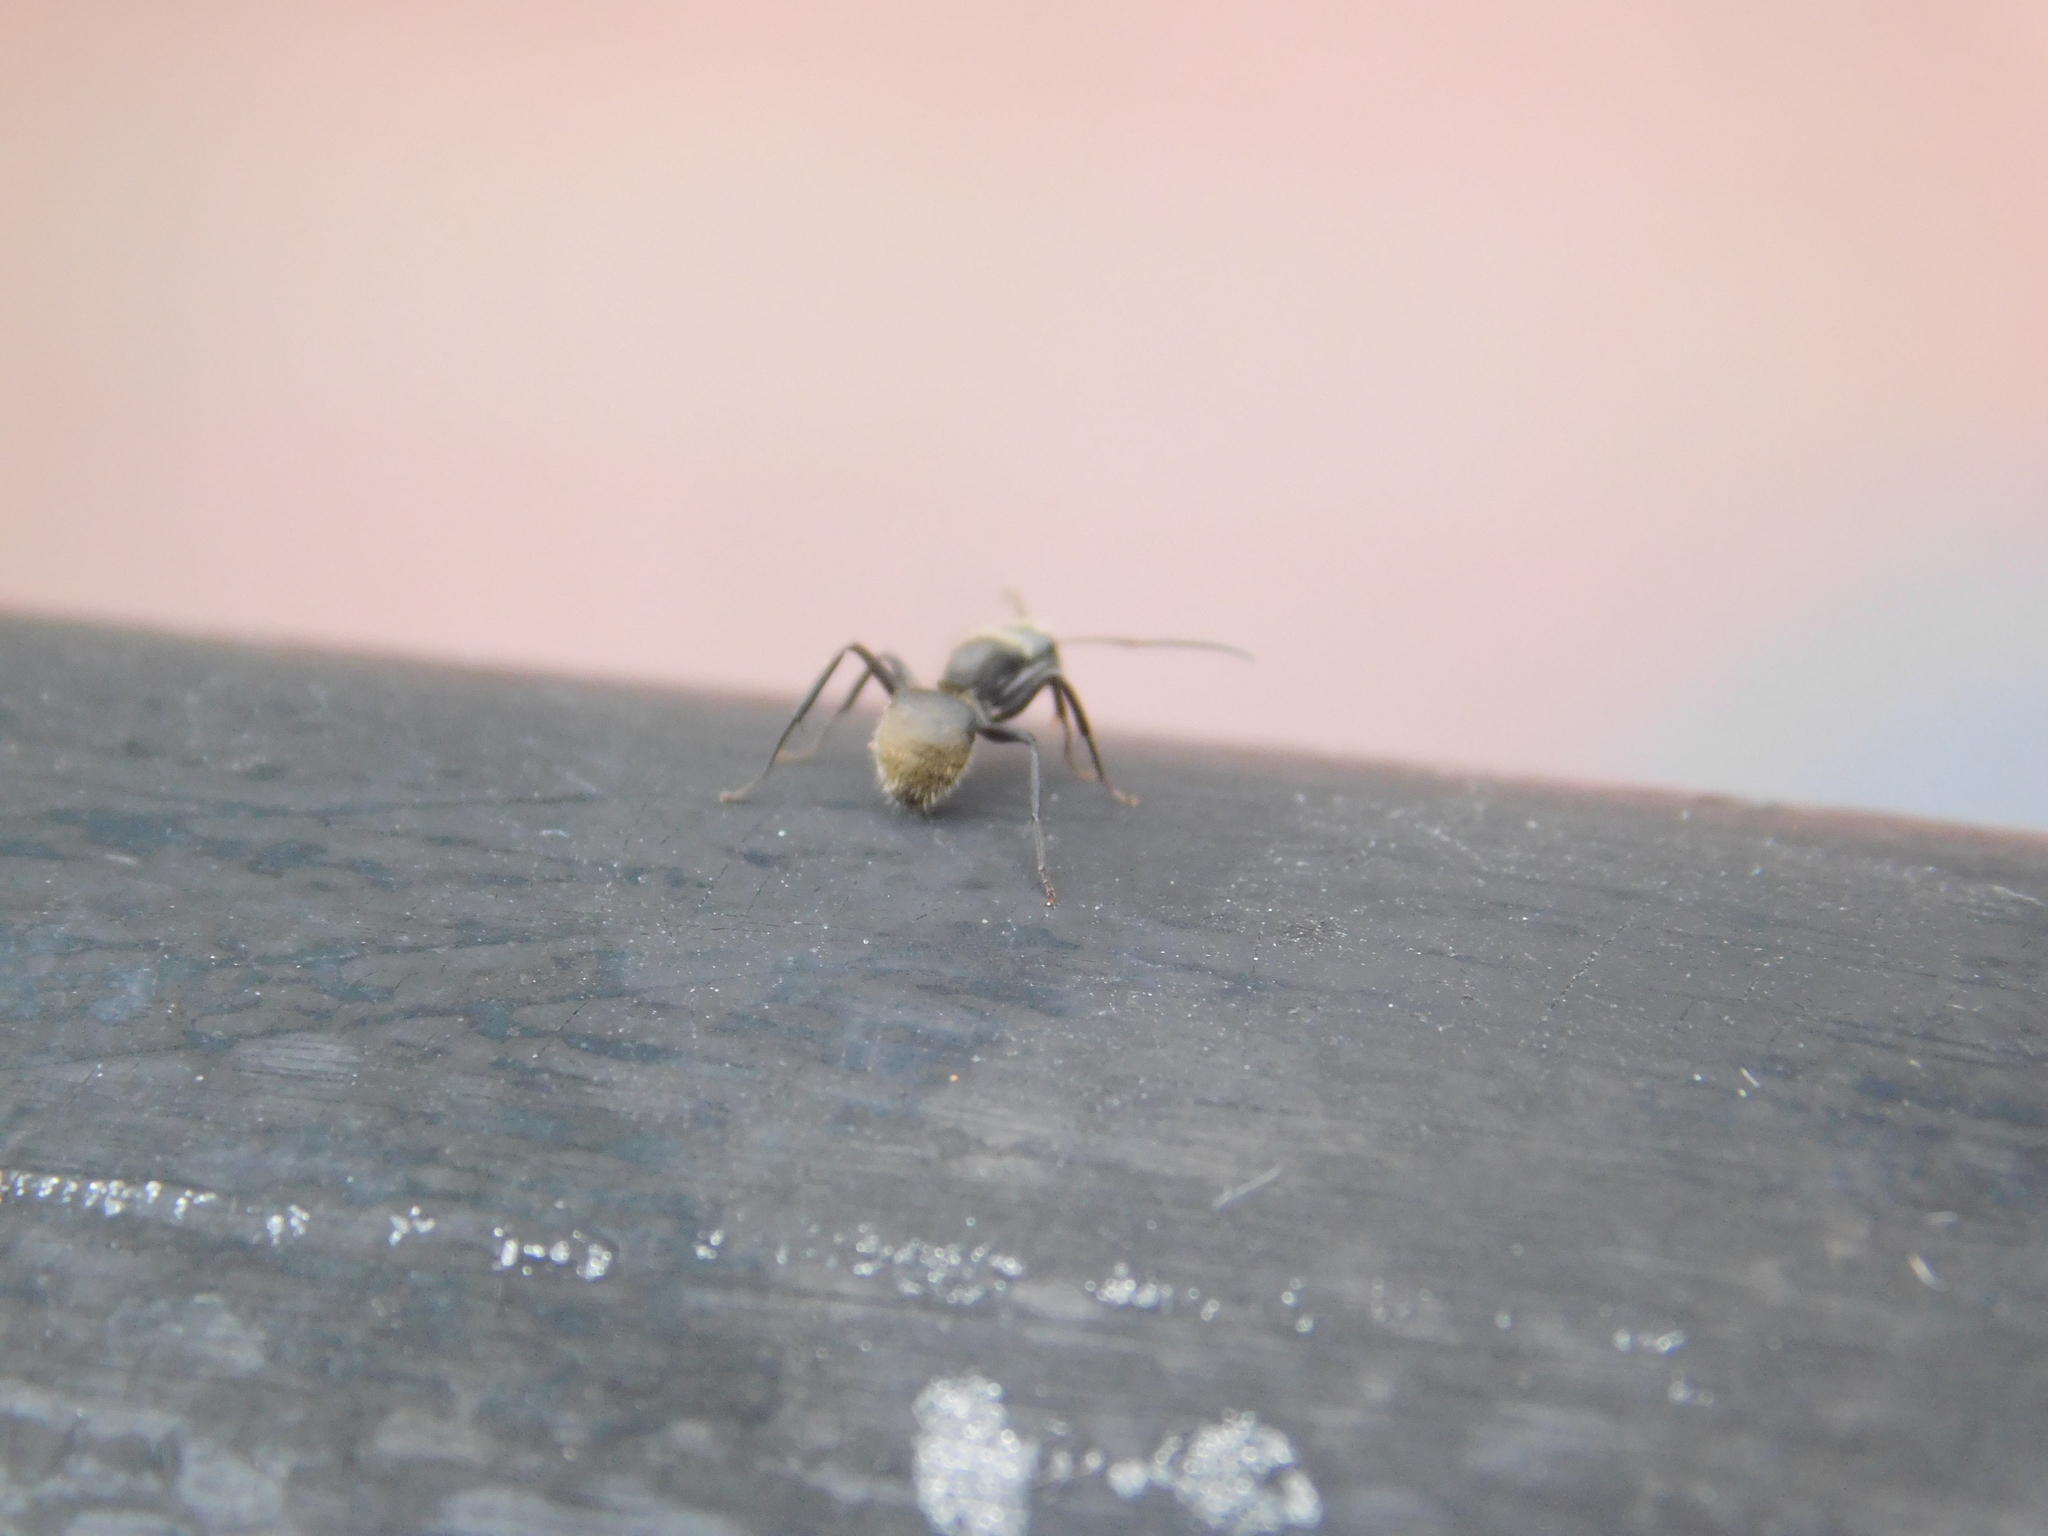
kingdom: Animalia
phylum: Arthropoda
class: Insecta
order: Hymenoptera
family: Formicidae
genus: Camponotus
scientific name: Camponotus mus
